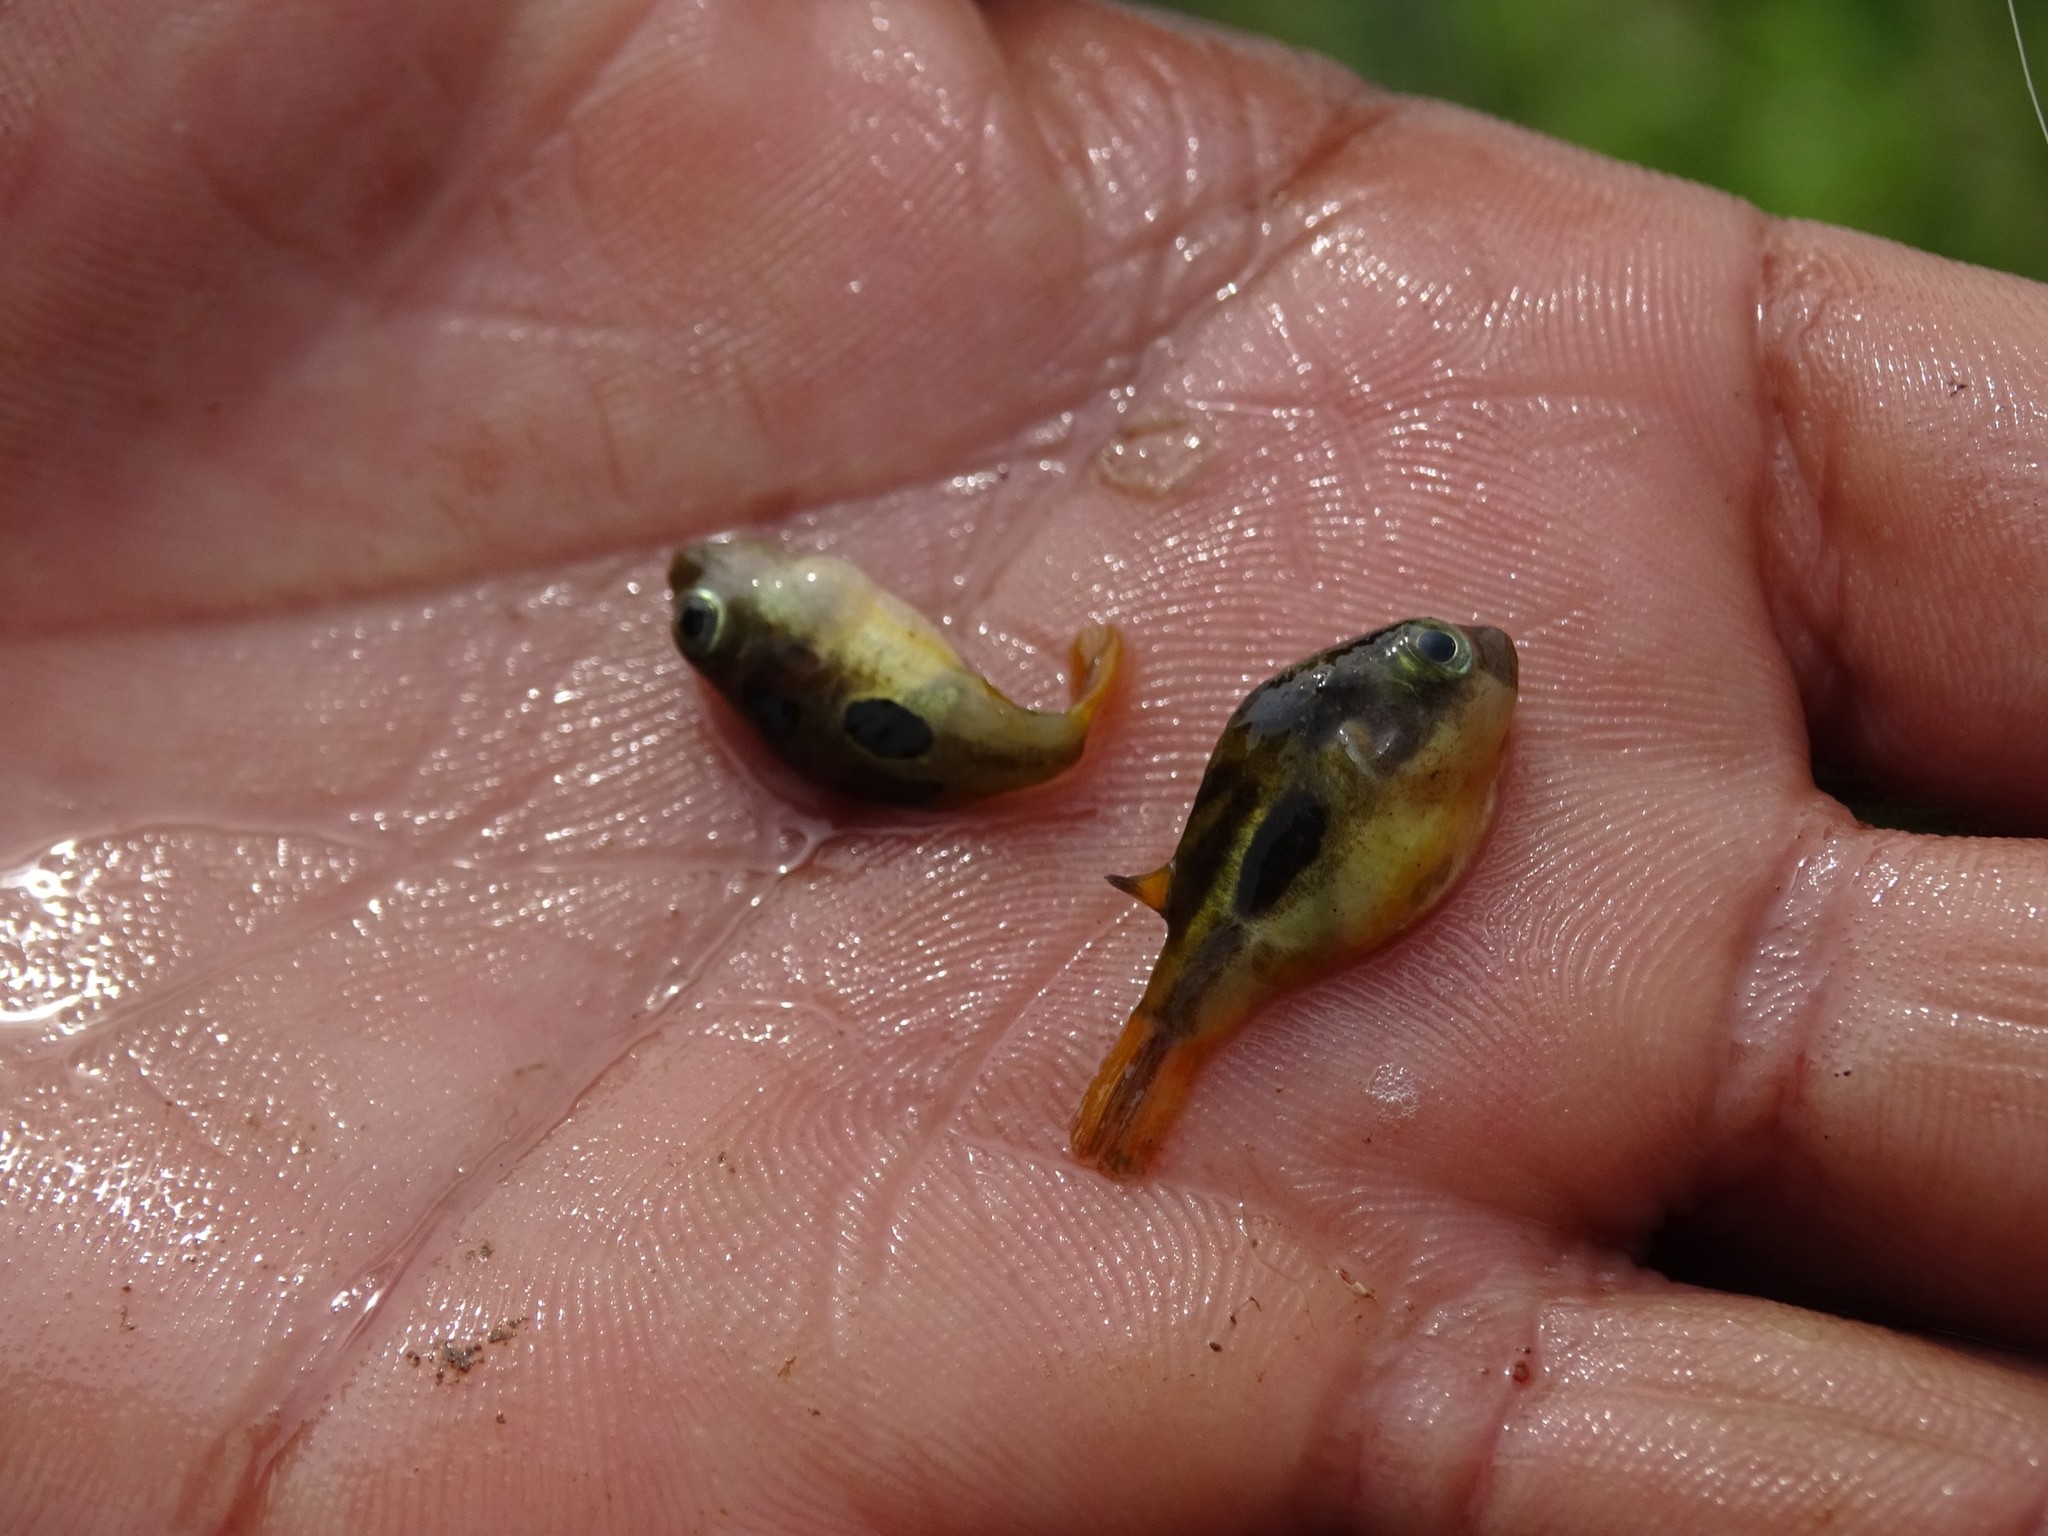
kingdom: Animalia
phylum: Chordata
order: Tetraodontiformes
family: Tetraodontidae
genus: Carinotetraodon
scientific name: Carinotetraodon travancoricus
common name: Dwarf indian puffer
